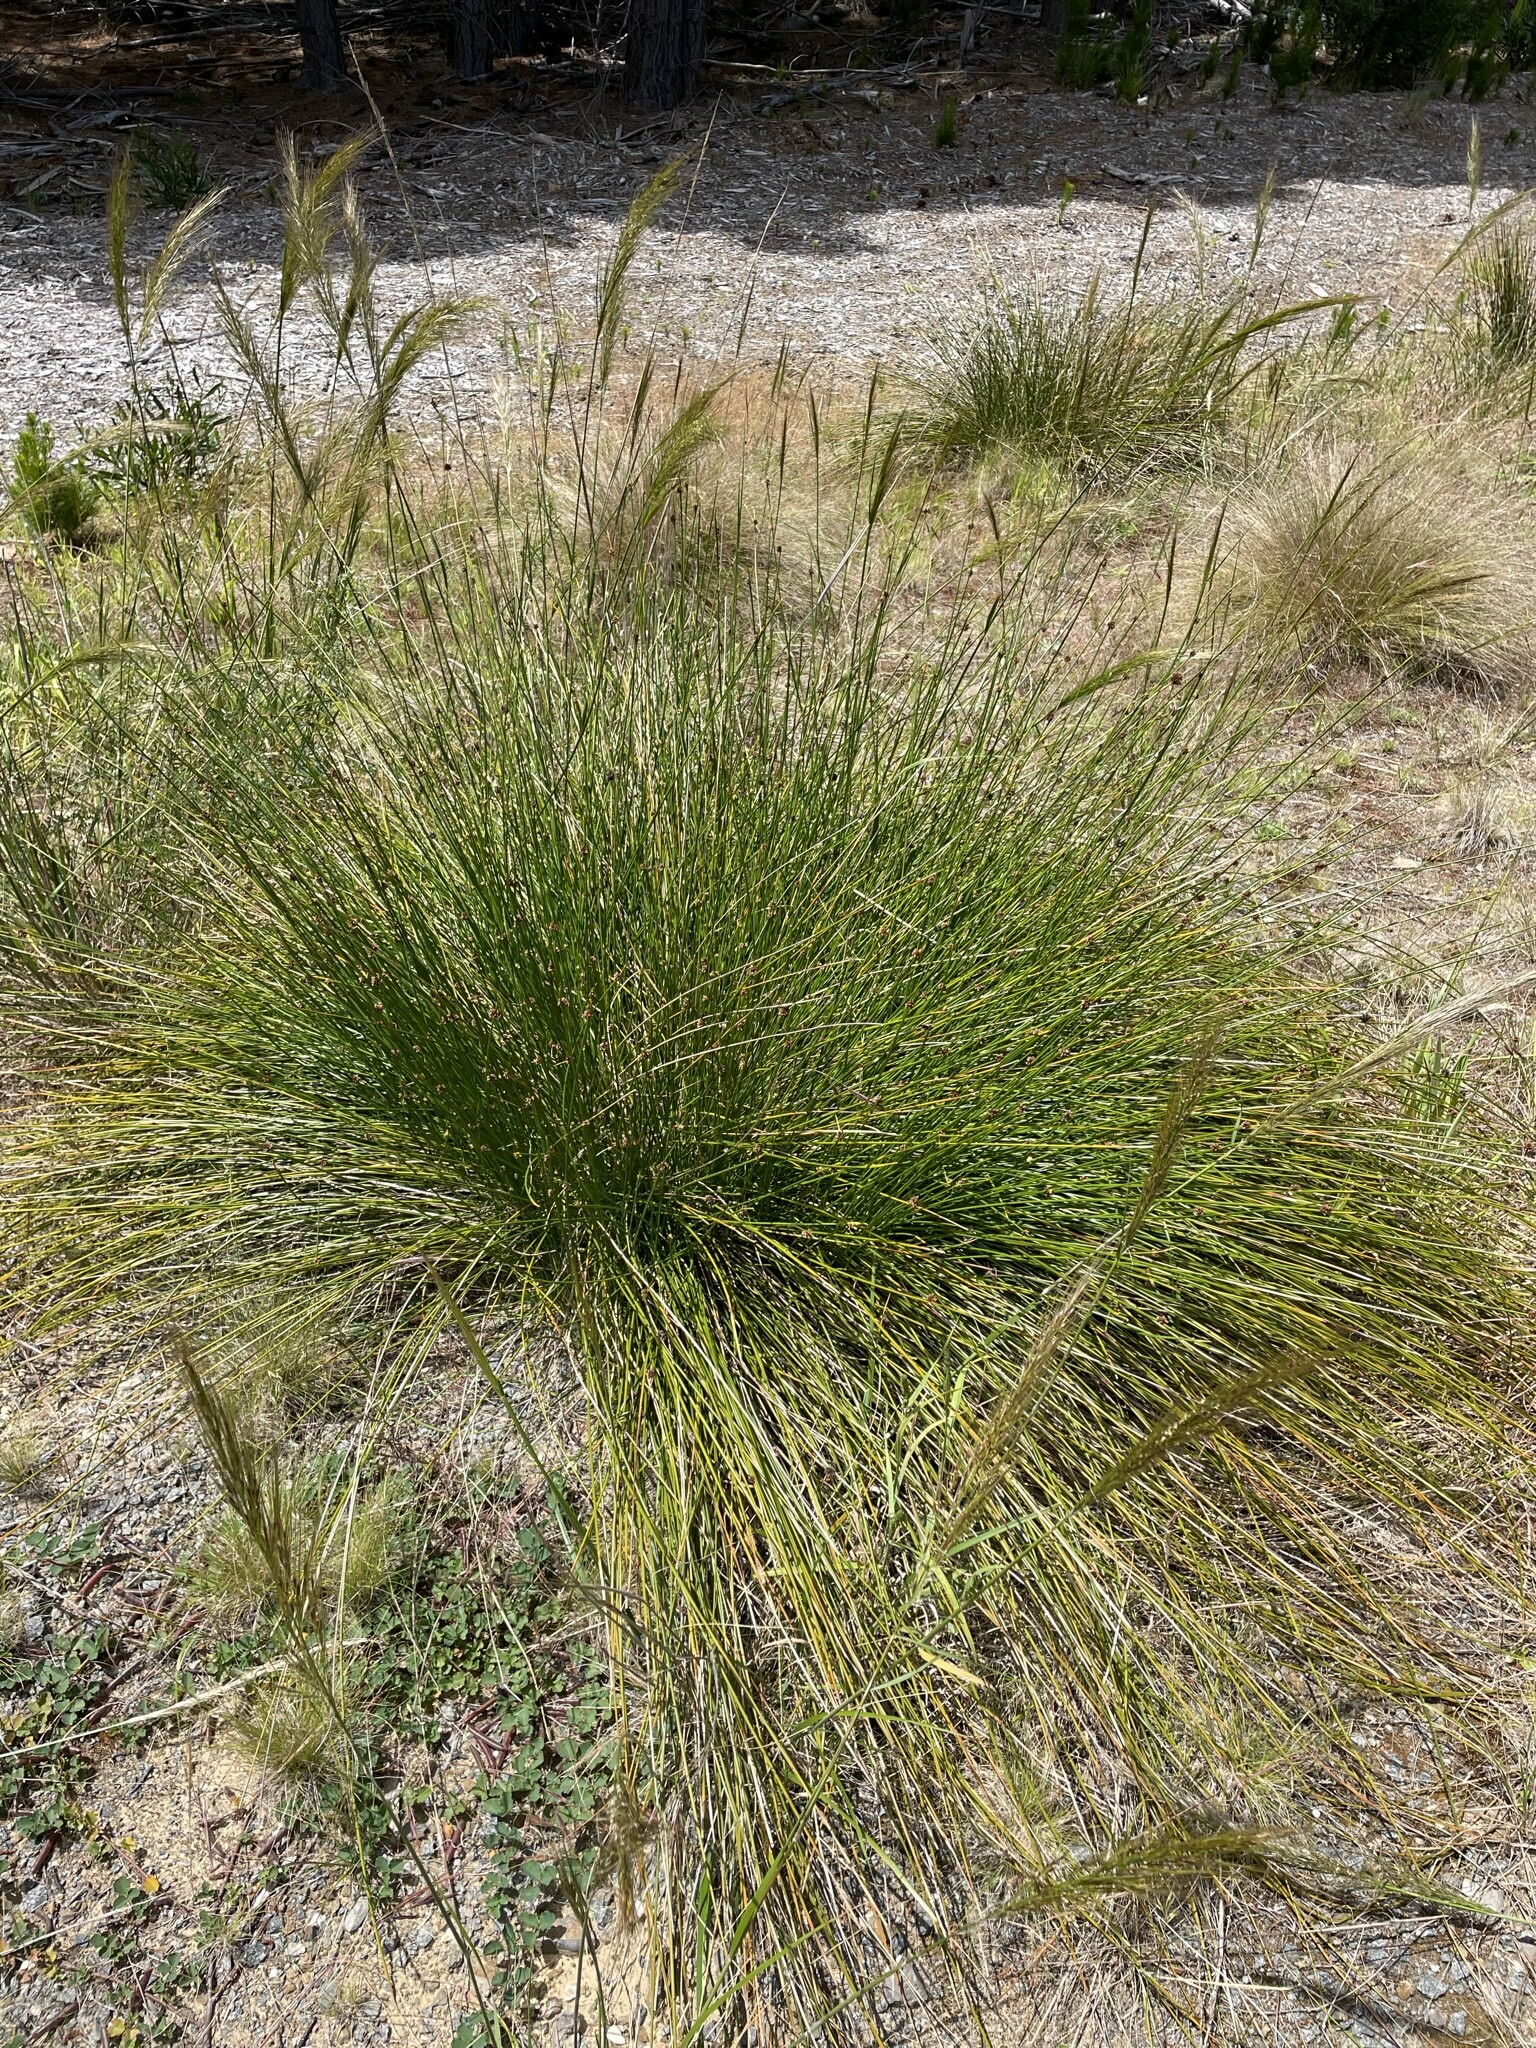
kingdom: Plantae
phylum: Tracheophyta
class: Liliopsida
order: Poales
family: Cyperaceae
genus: Ficinia
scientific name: Ficinia nodosa
